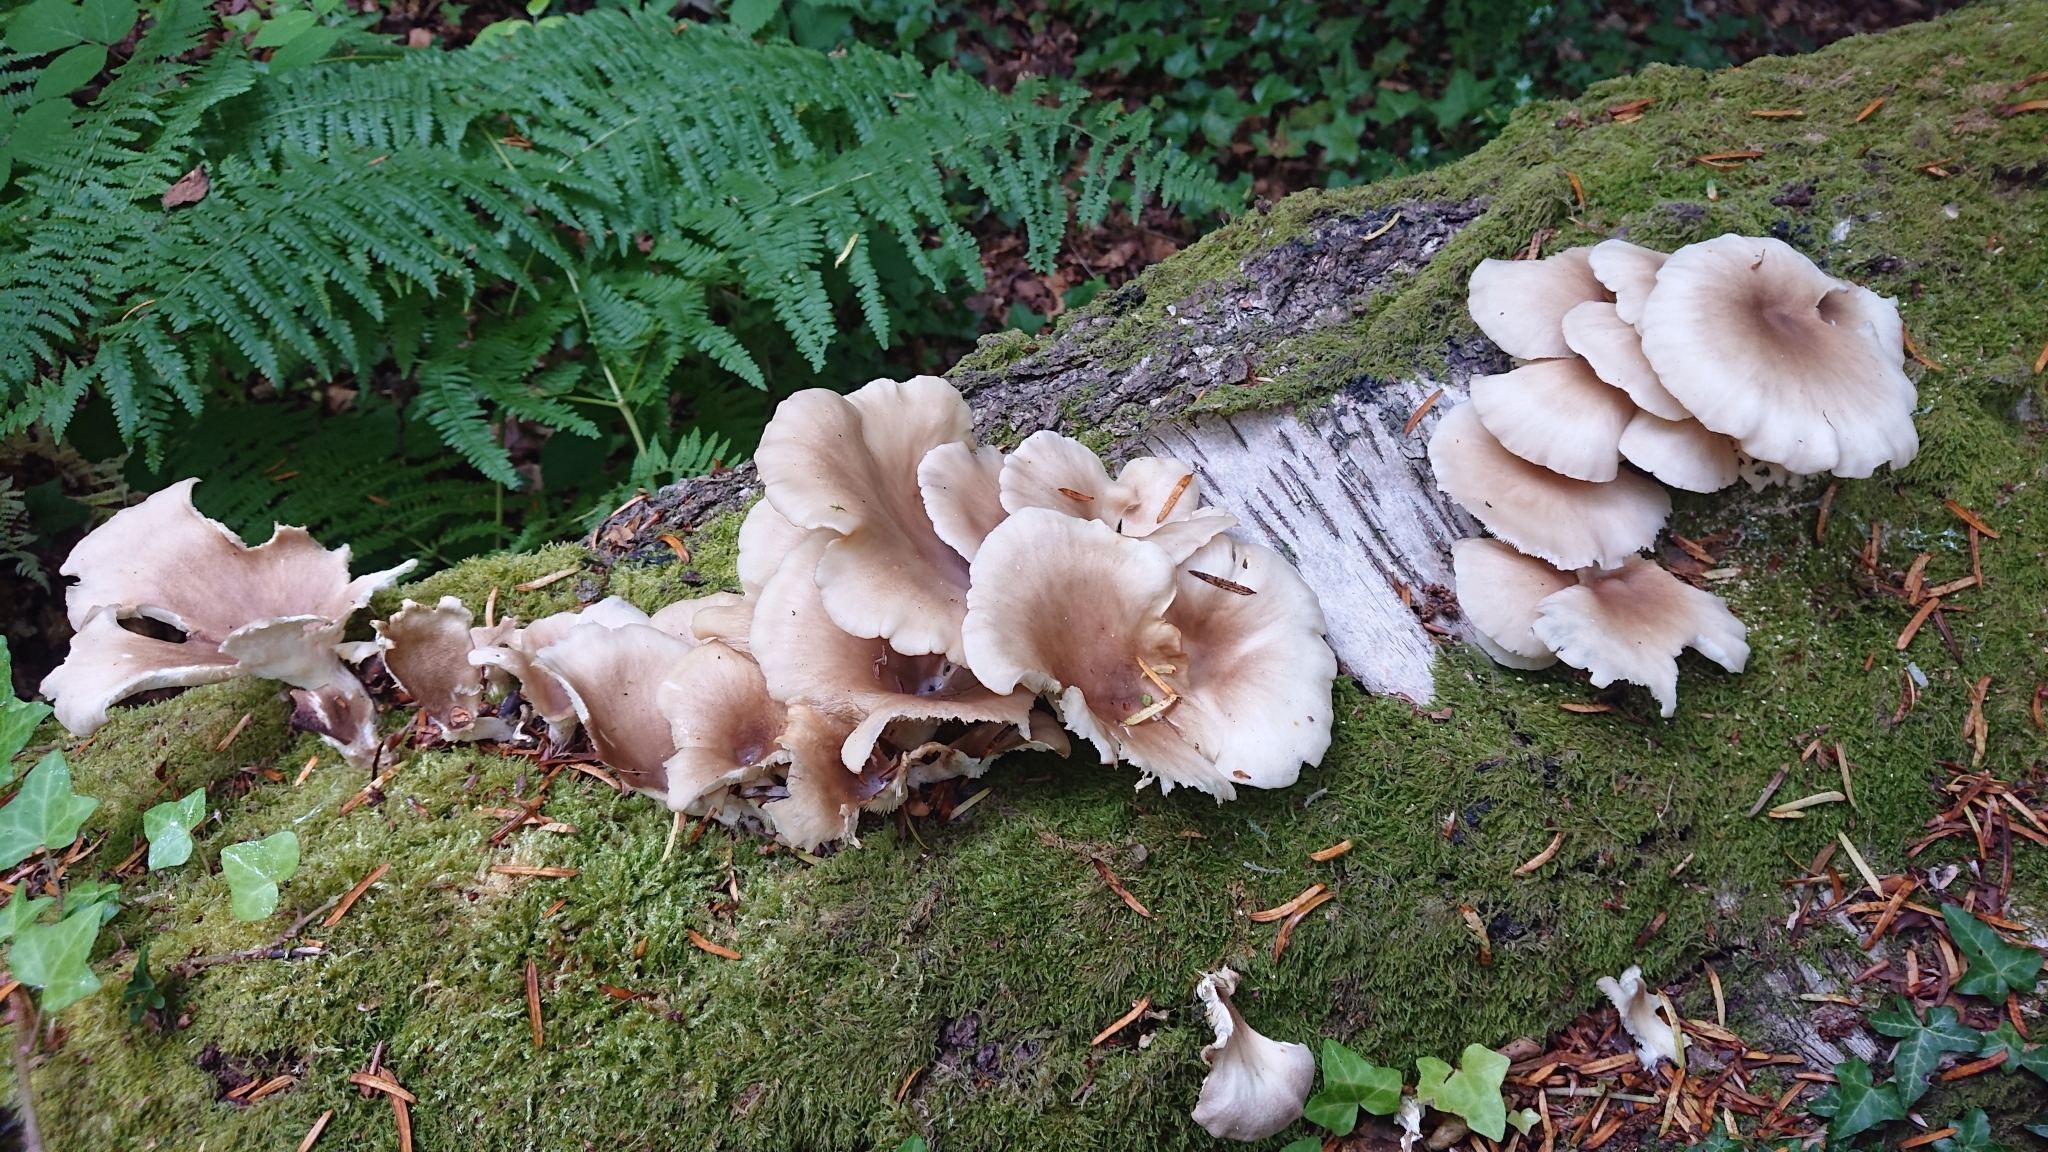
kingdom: Fungi
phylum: Basidiomycota
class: Agaricomycetes
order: Agaricales
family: Pleurotaceae
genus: Pleurotus
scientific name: Pleurotus ostreatus
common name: Oyster mushroom
